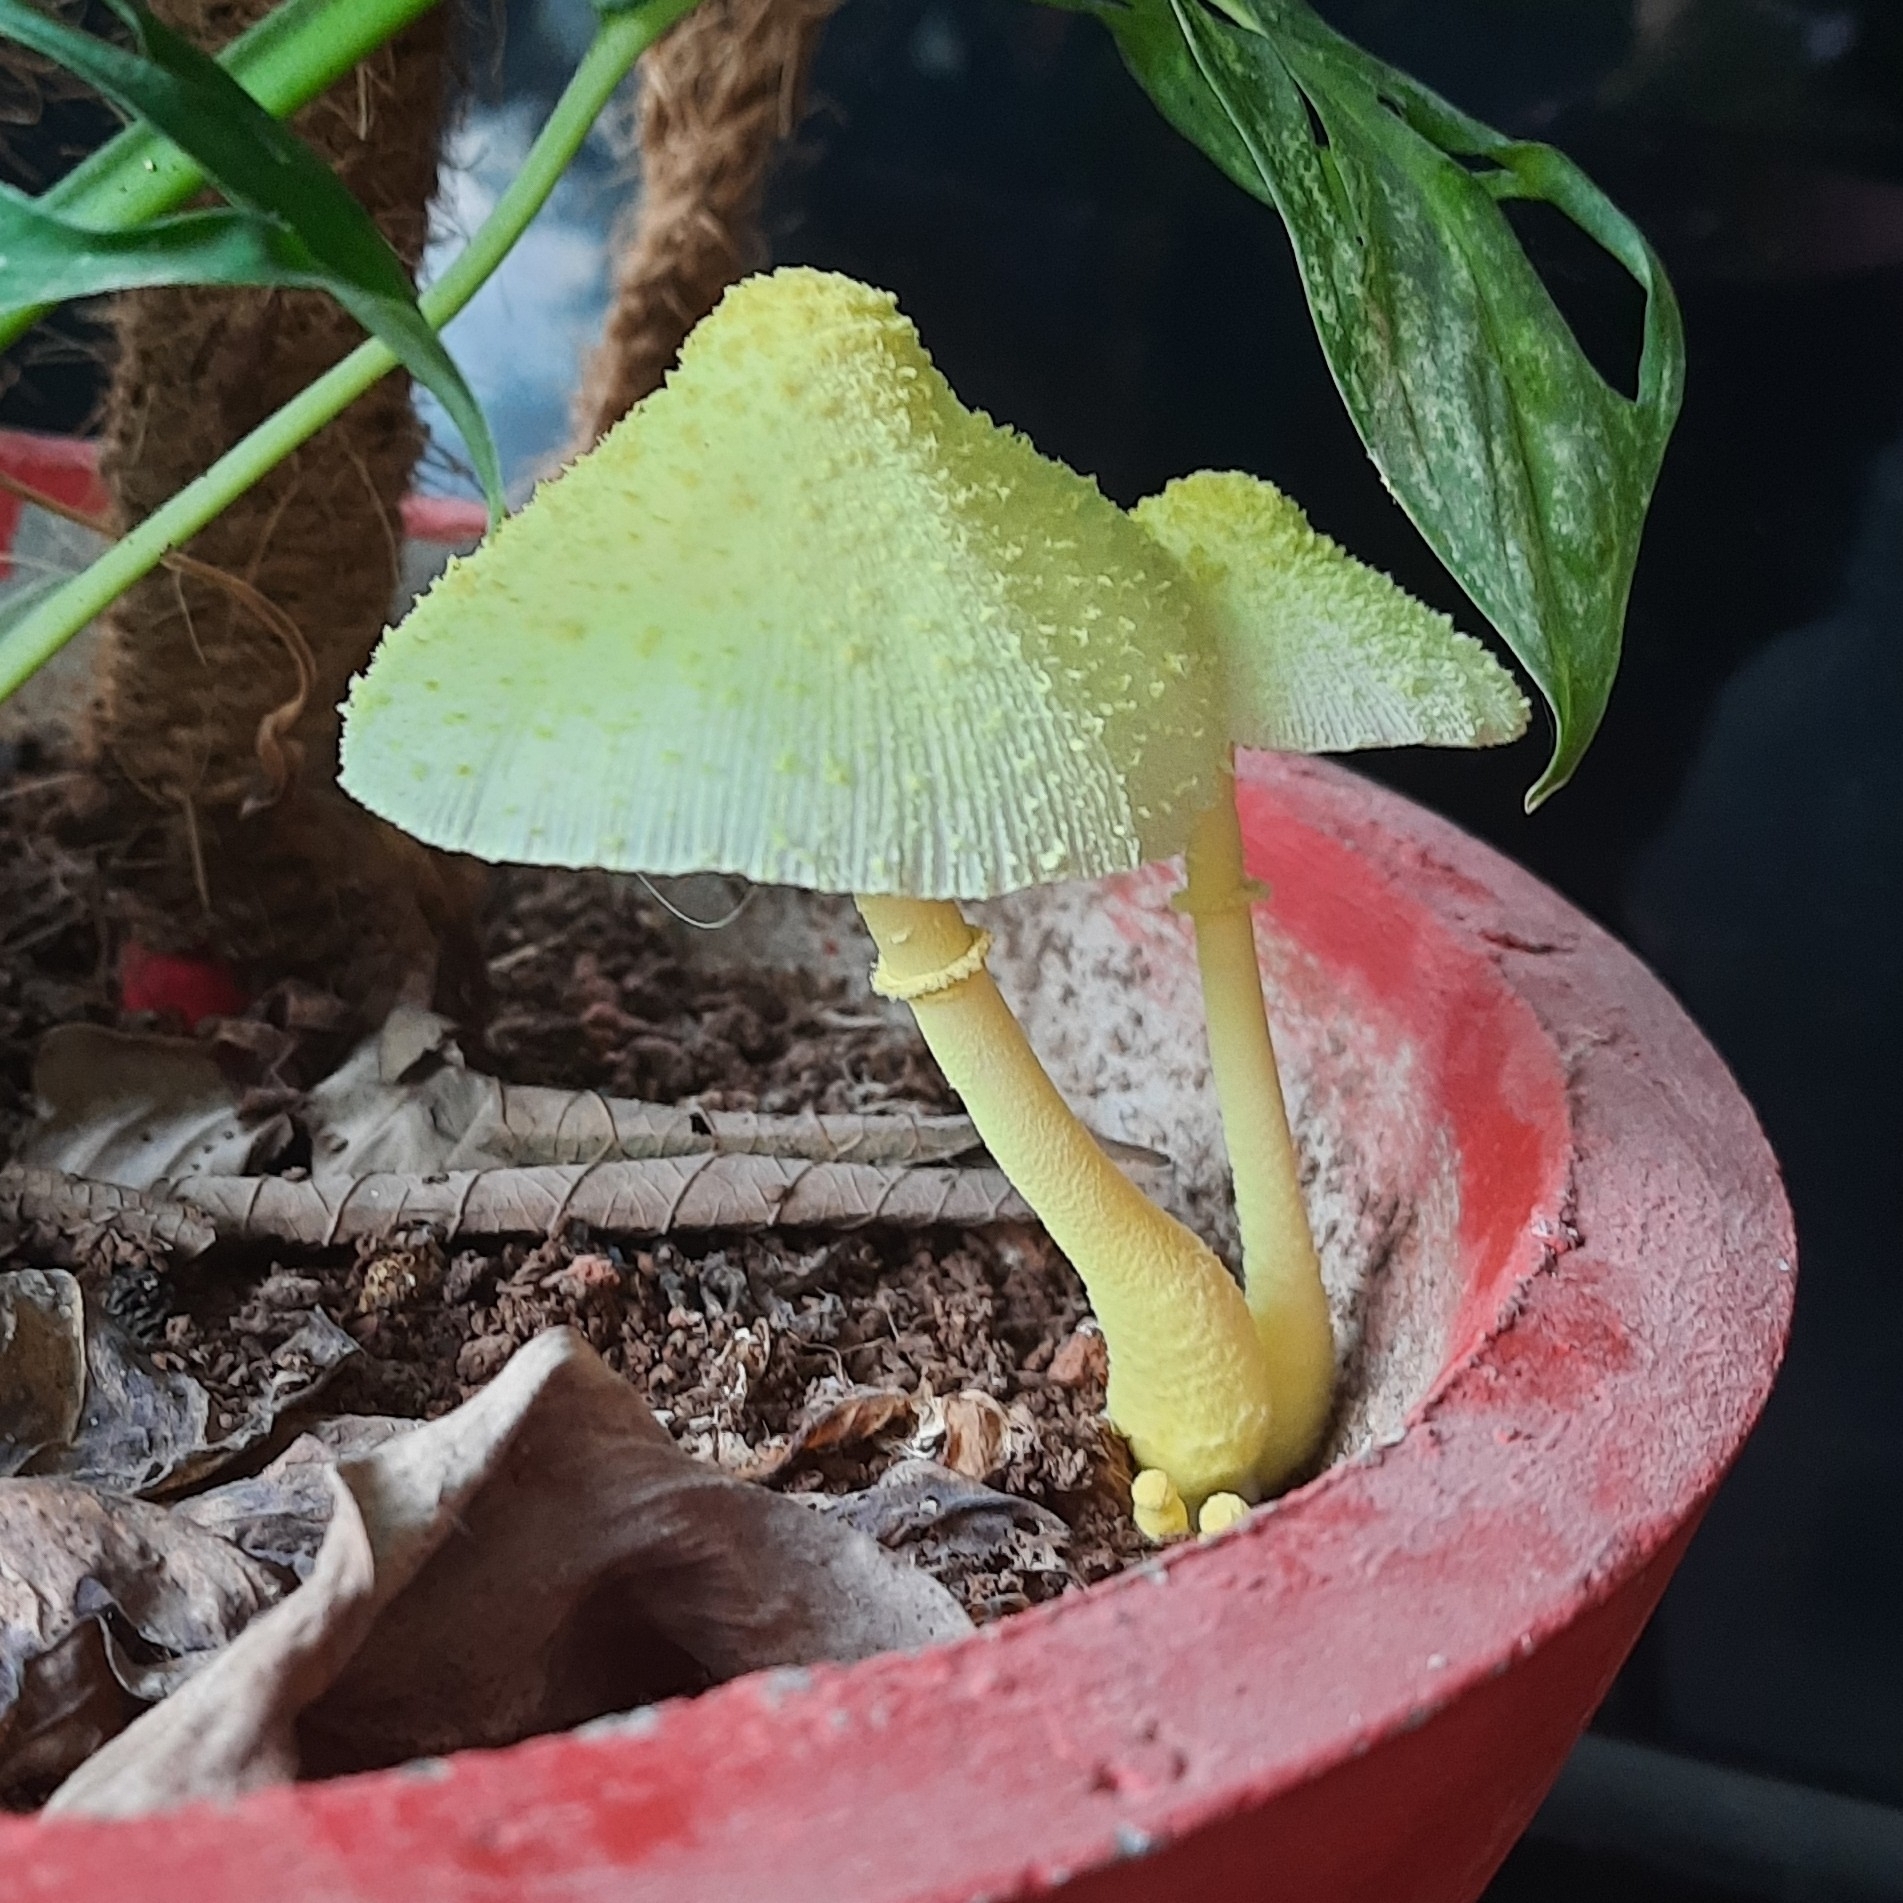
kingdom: Fungi
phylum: Basidiomycota
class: Agaricomycetes
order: Agaricales
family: Agaricaceae
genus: Leucocoprinus
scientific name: Leucocoprinus birnbaumii
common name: Plantpot dapperling
